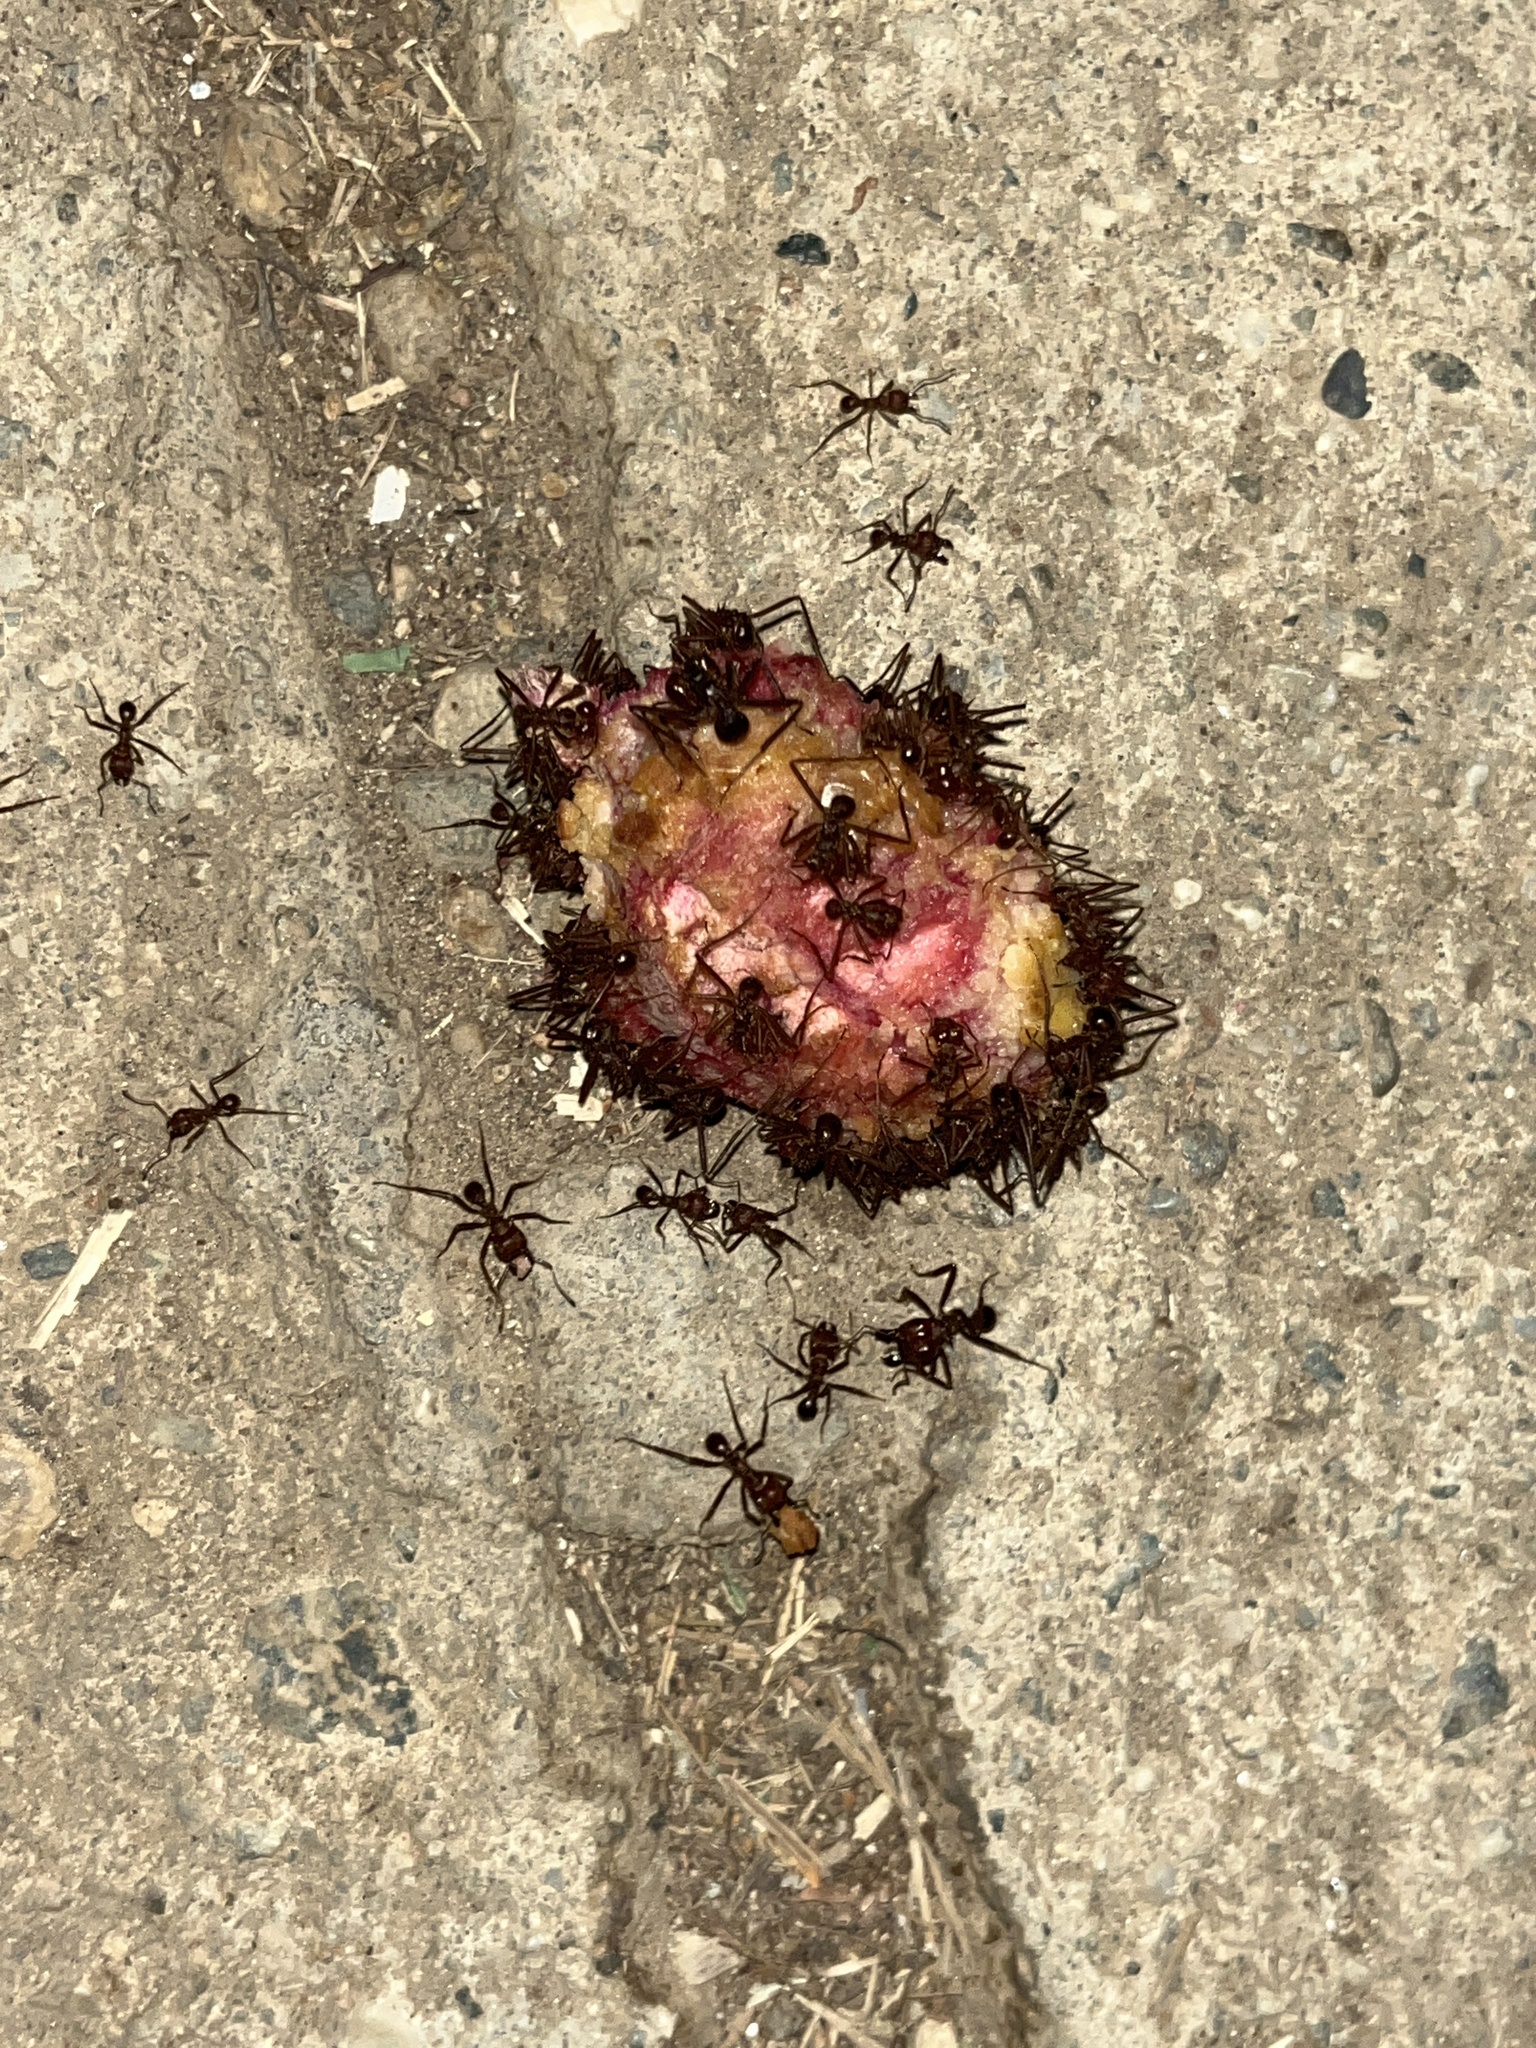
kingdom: Animalia
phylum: Arthropoda
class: Insecta
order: Hymenoptera
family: Formicidae
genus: Atta
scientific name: Atta mexicana
